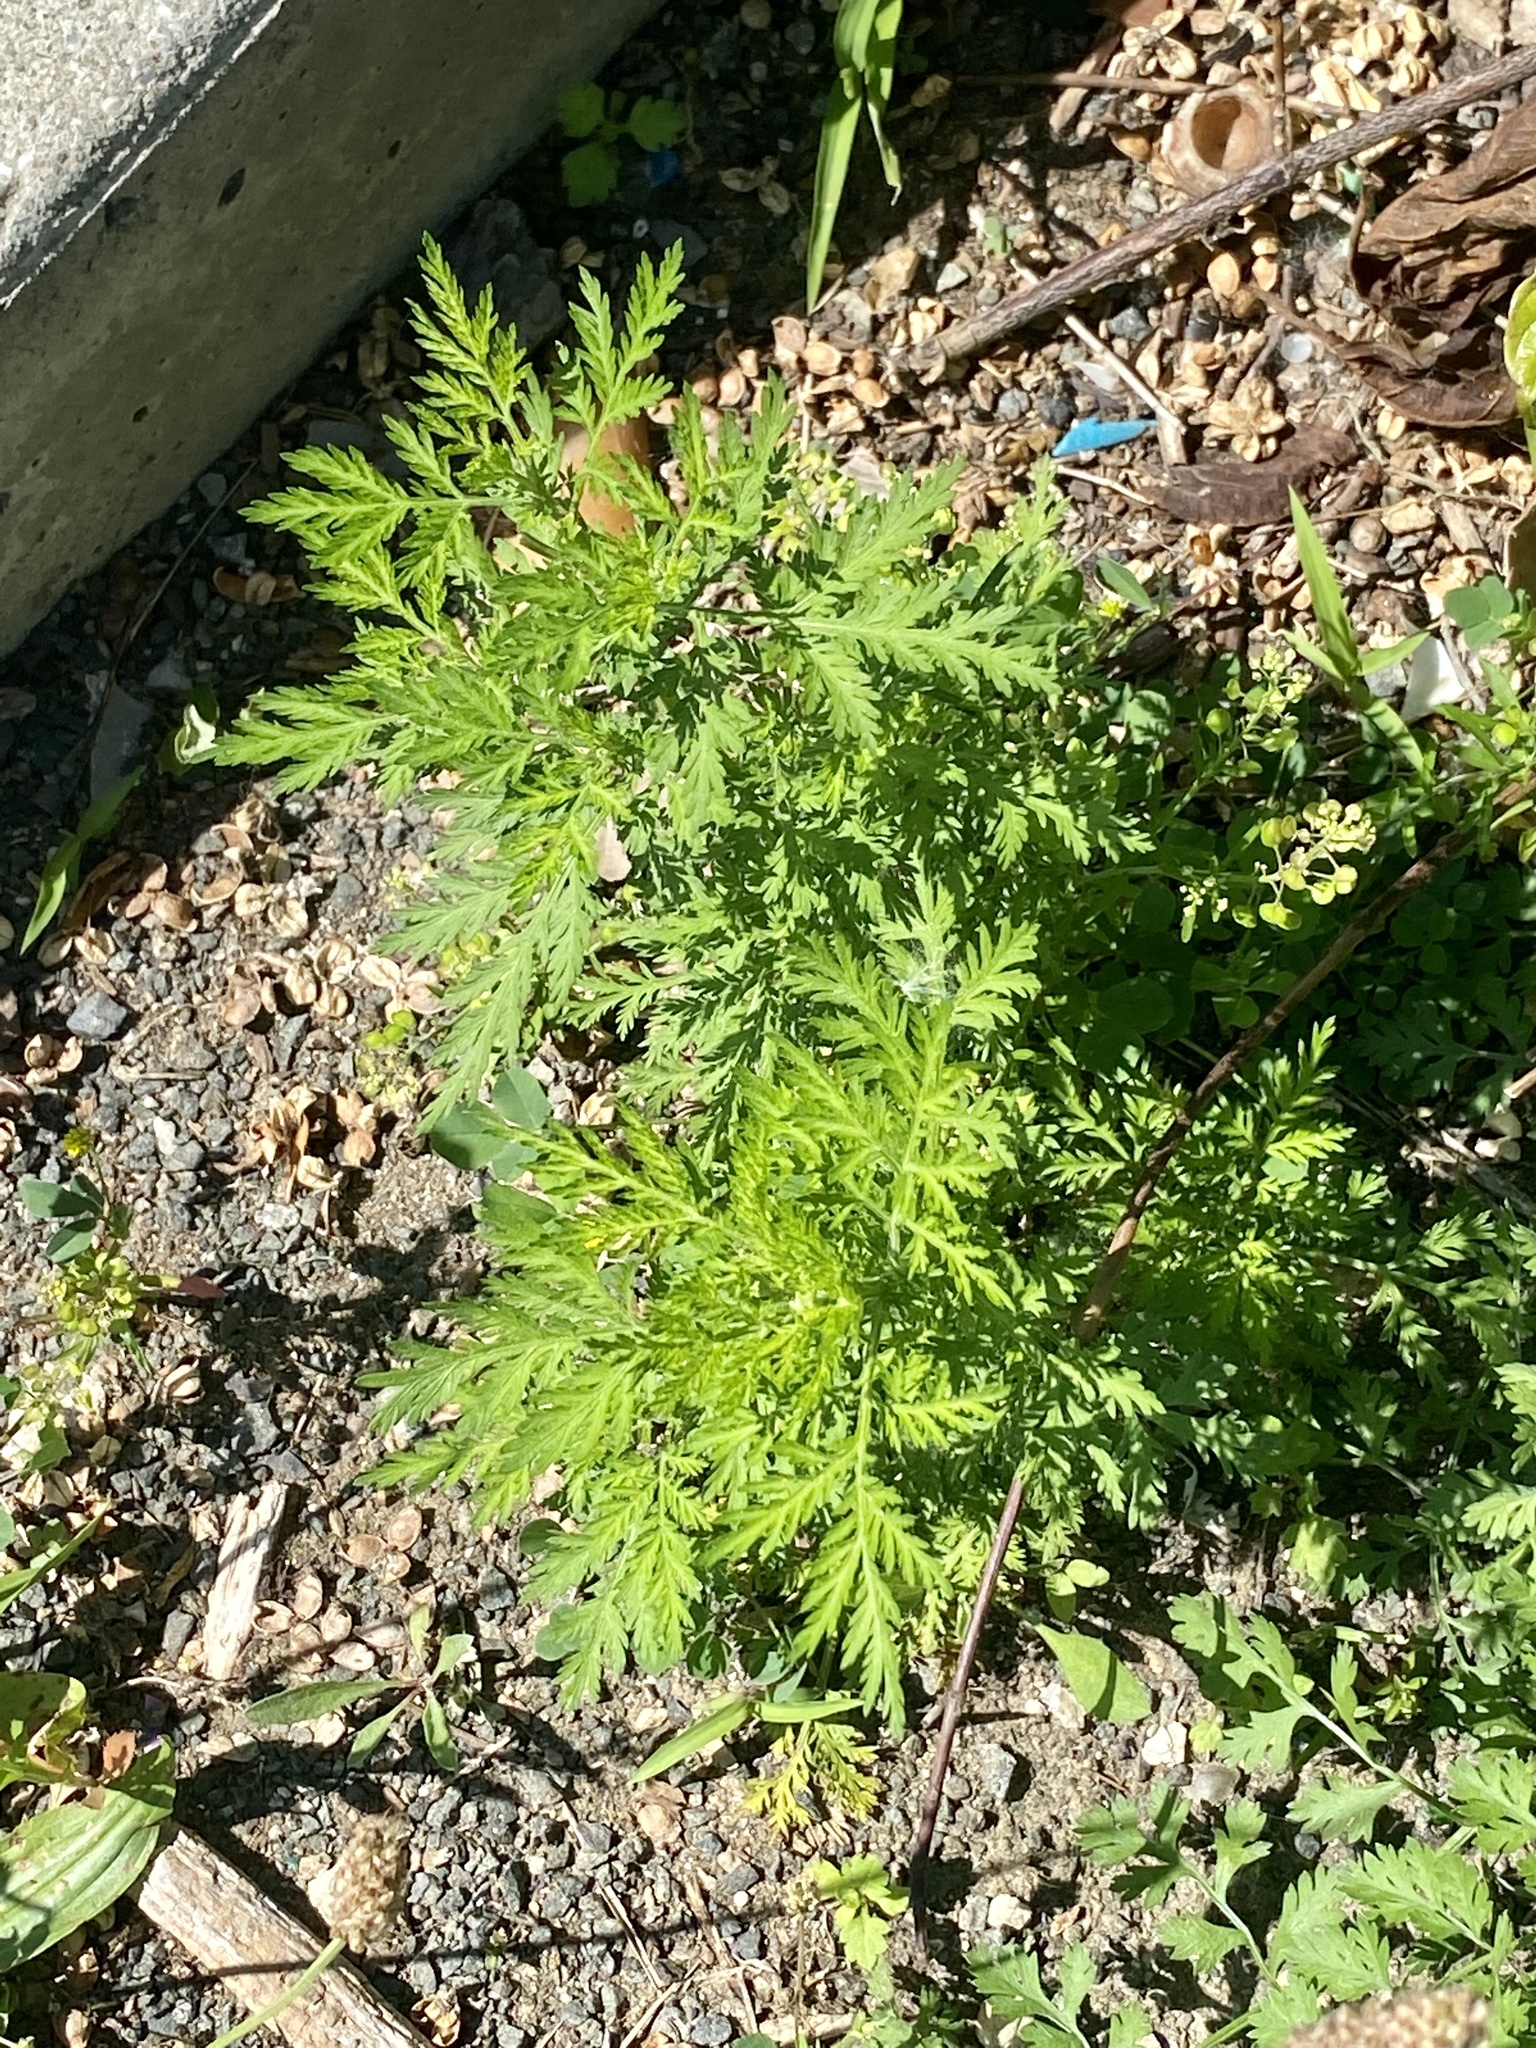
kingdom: Plantae
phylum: Tracheophyta
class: Magnoliopsida
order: Asterales
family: Asteraceae
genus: Artemisia
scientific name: Artemisia annua
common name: Sweet sagewort
